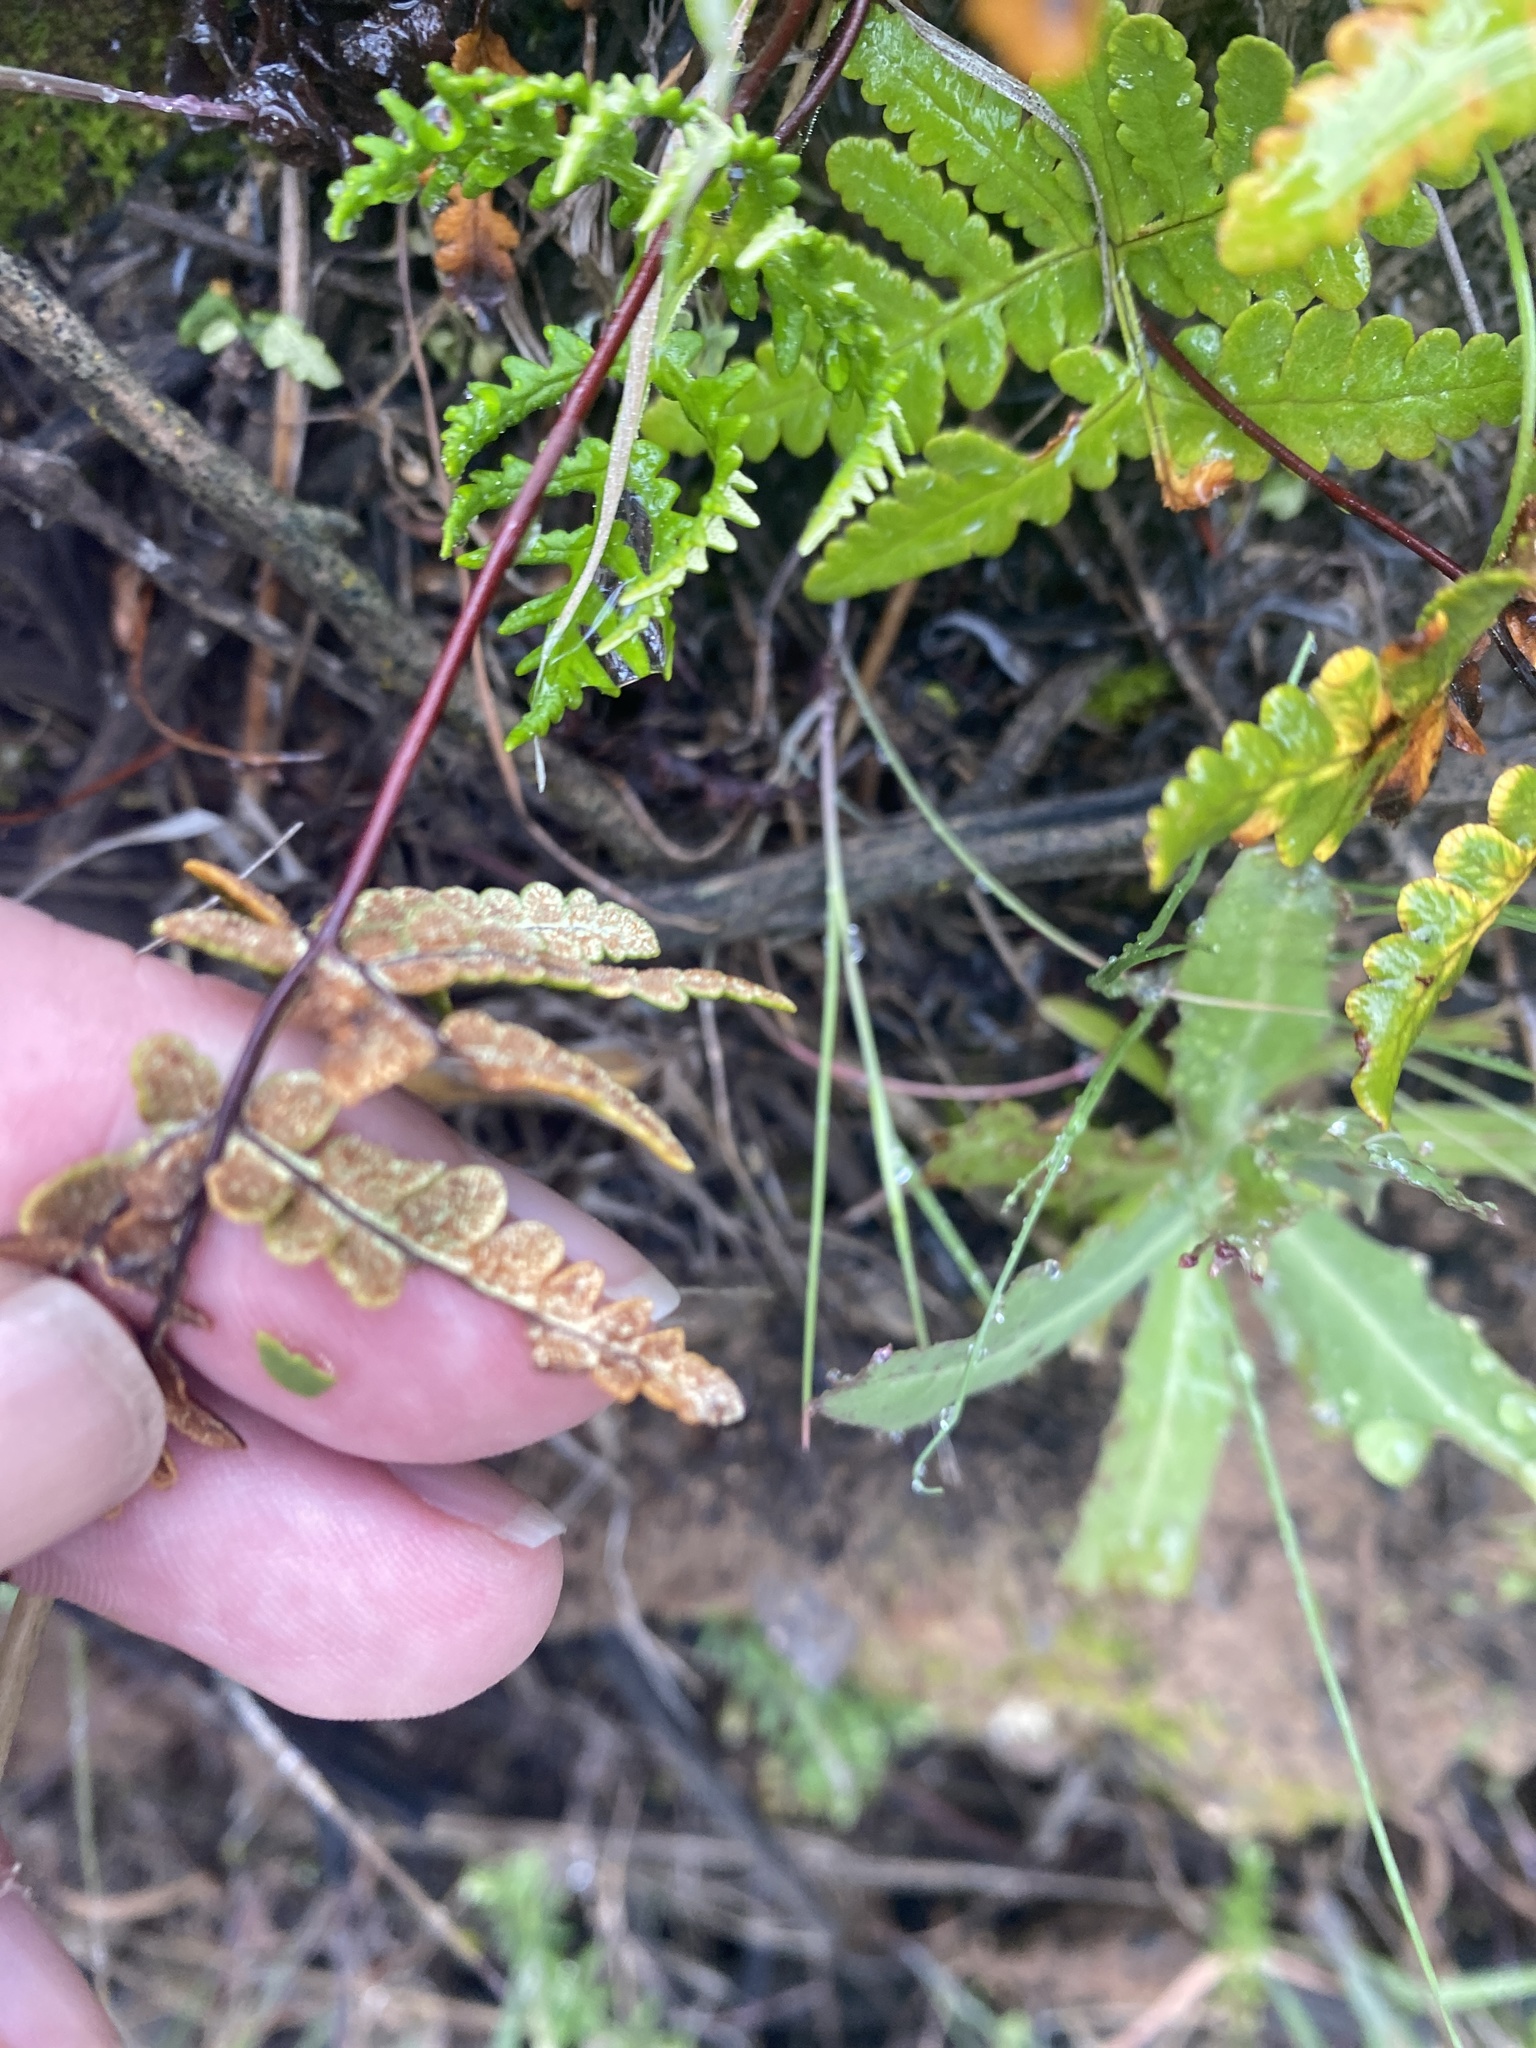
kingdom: Plantae
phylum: Tracheophyta
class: Polypodiopsida
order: Polypodiales
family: Pteridaceae
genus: Pentagramma
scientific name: Pentagramma triangularis
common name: Gold fern
